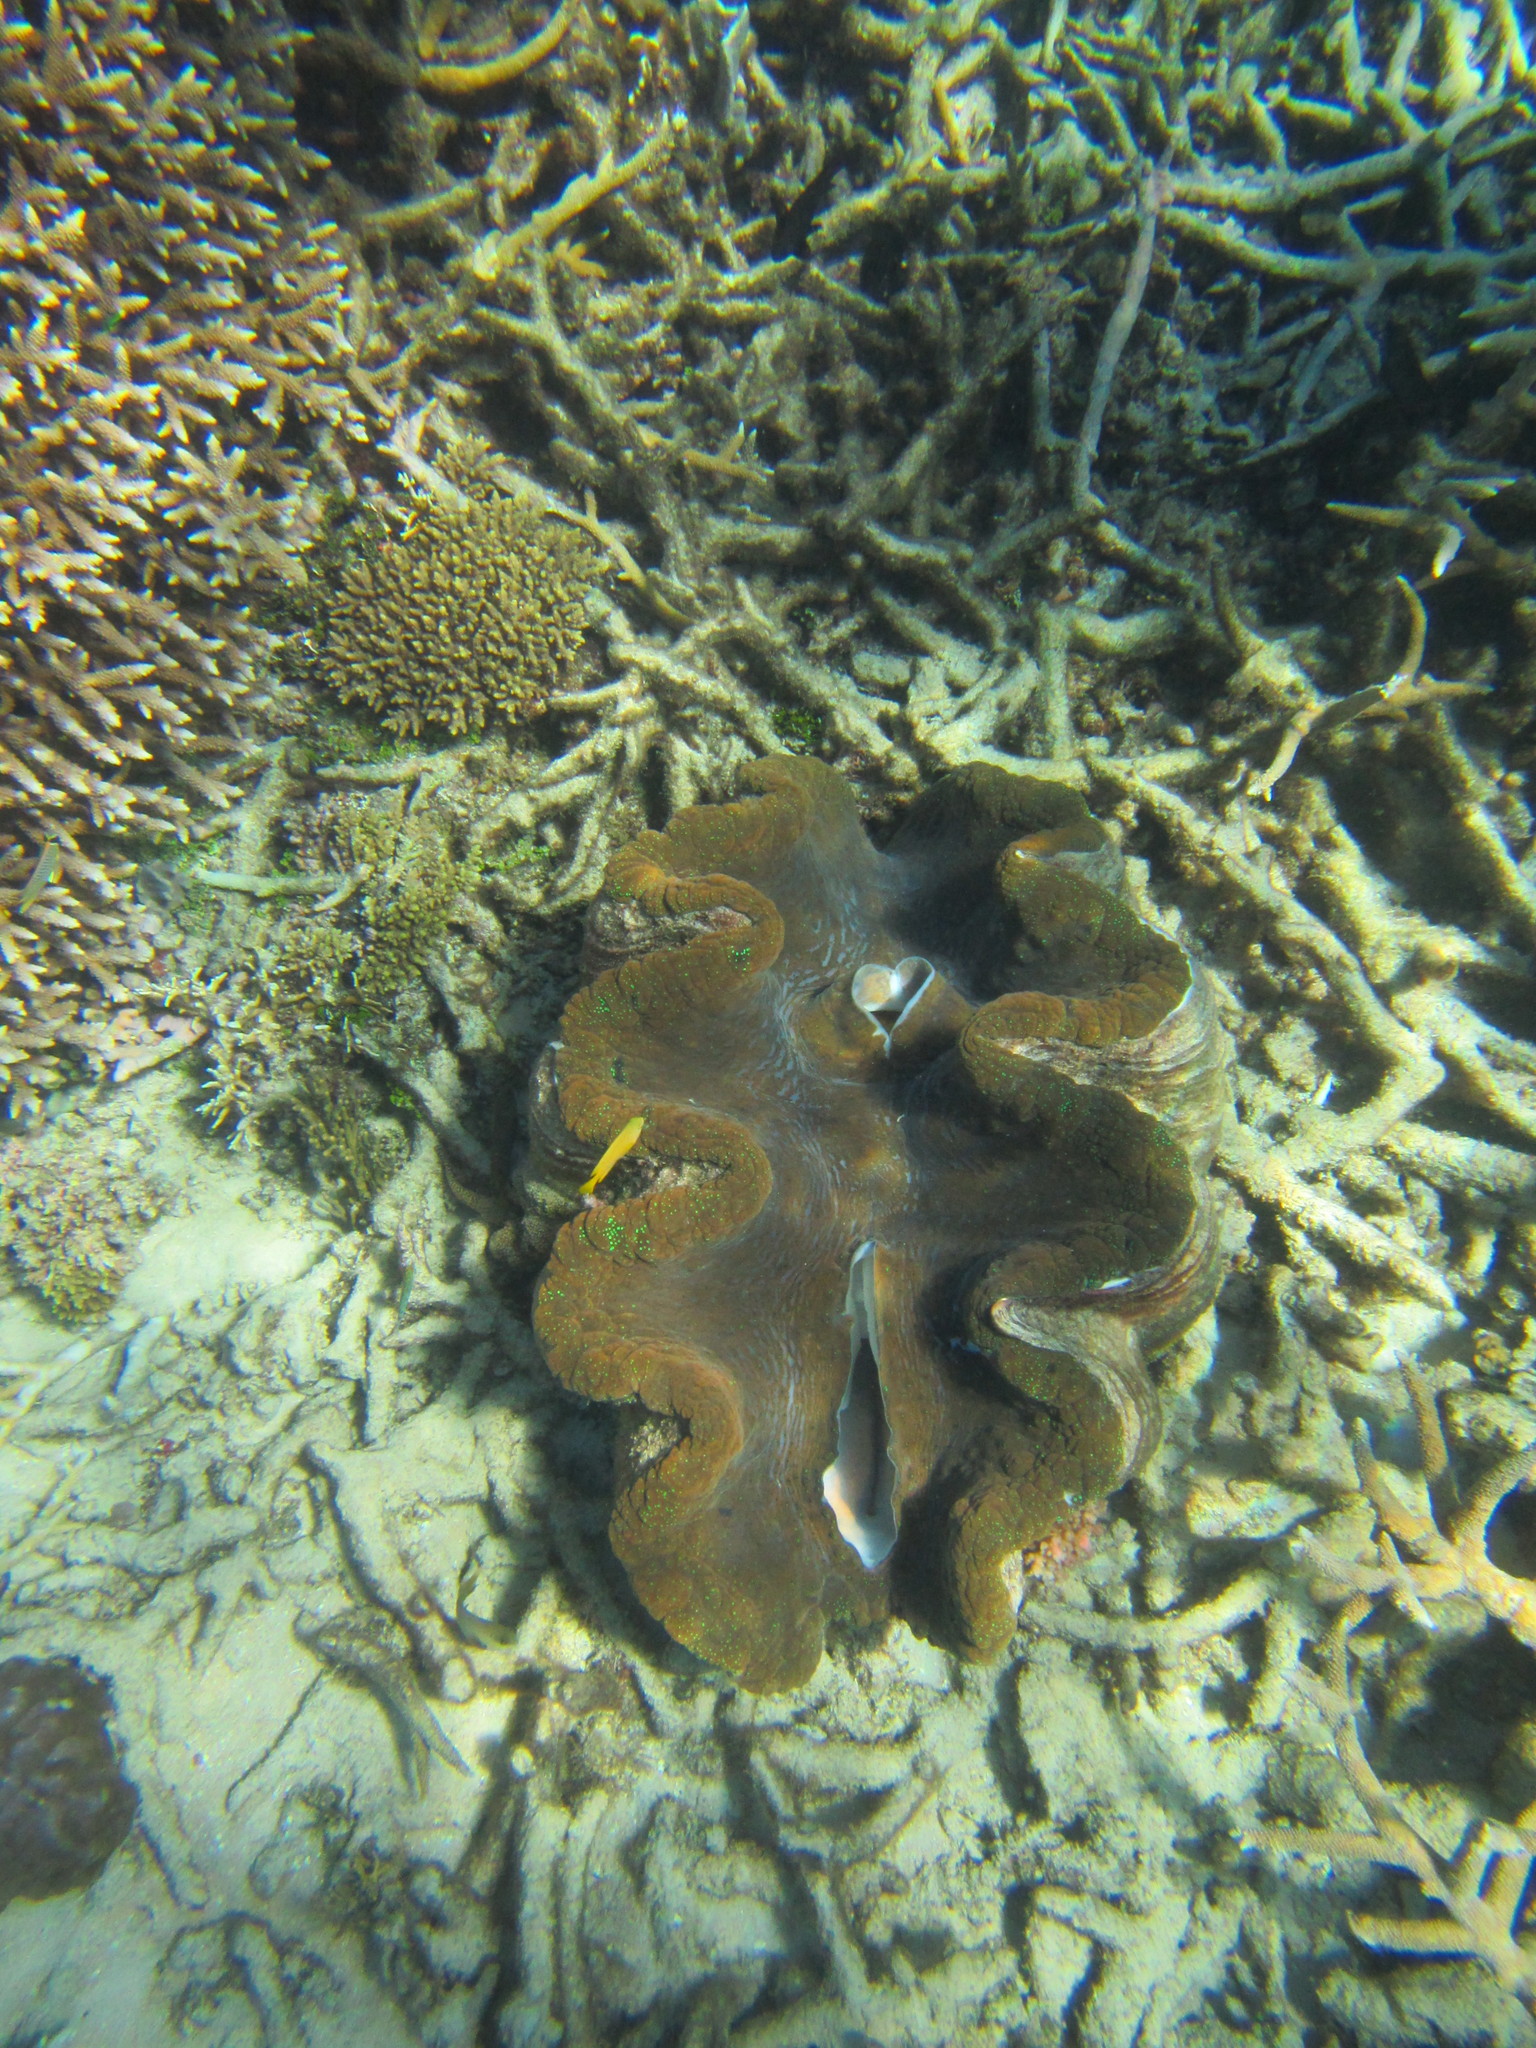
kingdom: Animalia
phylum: Mollusca
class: Bivalvia
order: Cardiida
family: Cardiidae
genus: Tridacna
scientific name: Tridacna gigas
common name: Giant clam
